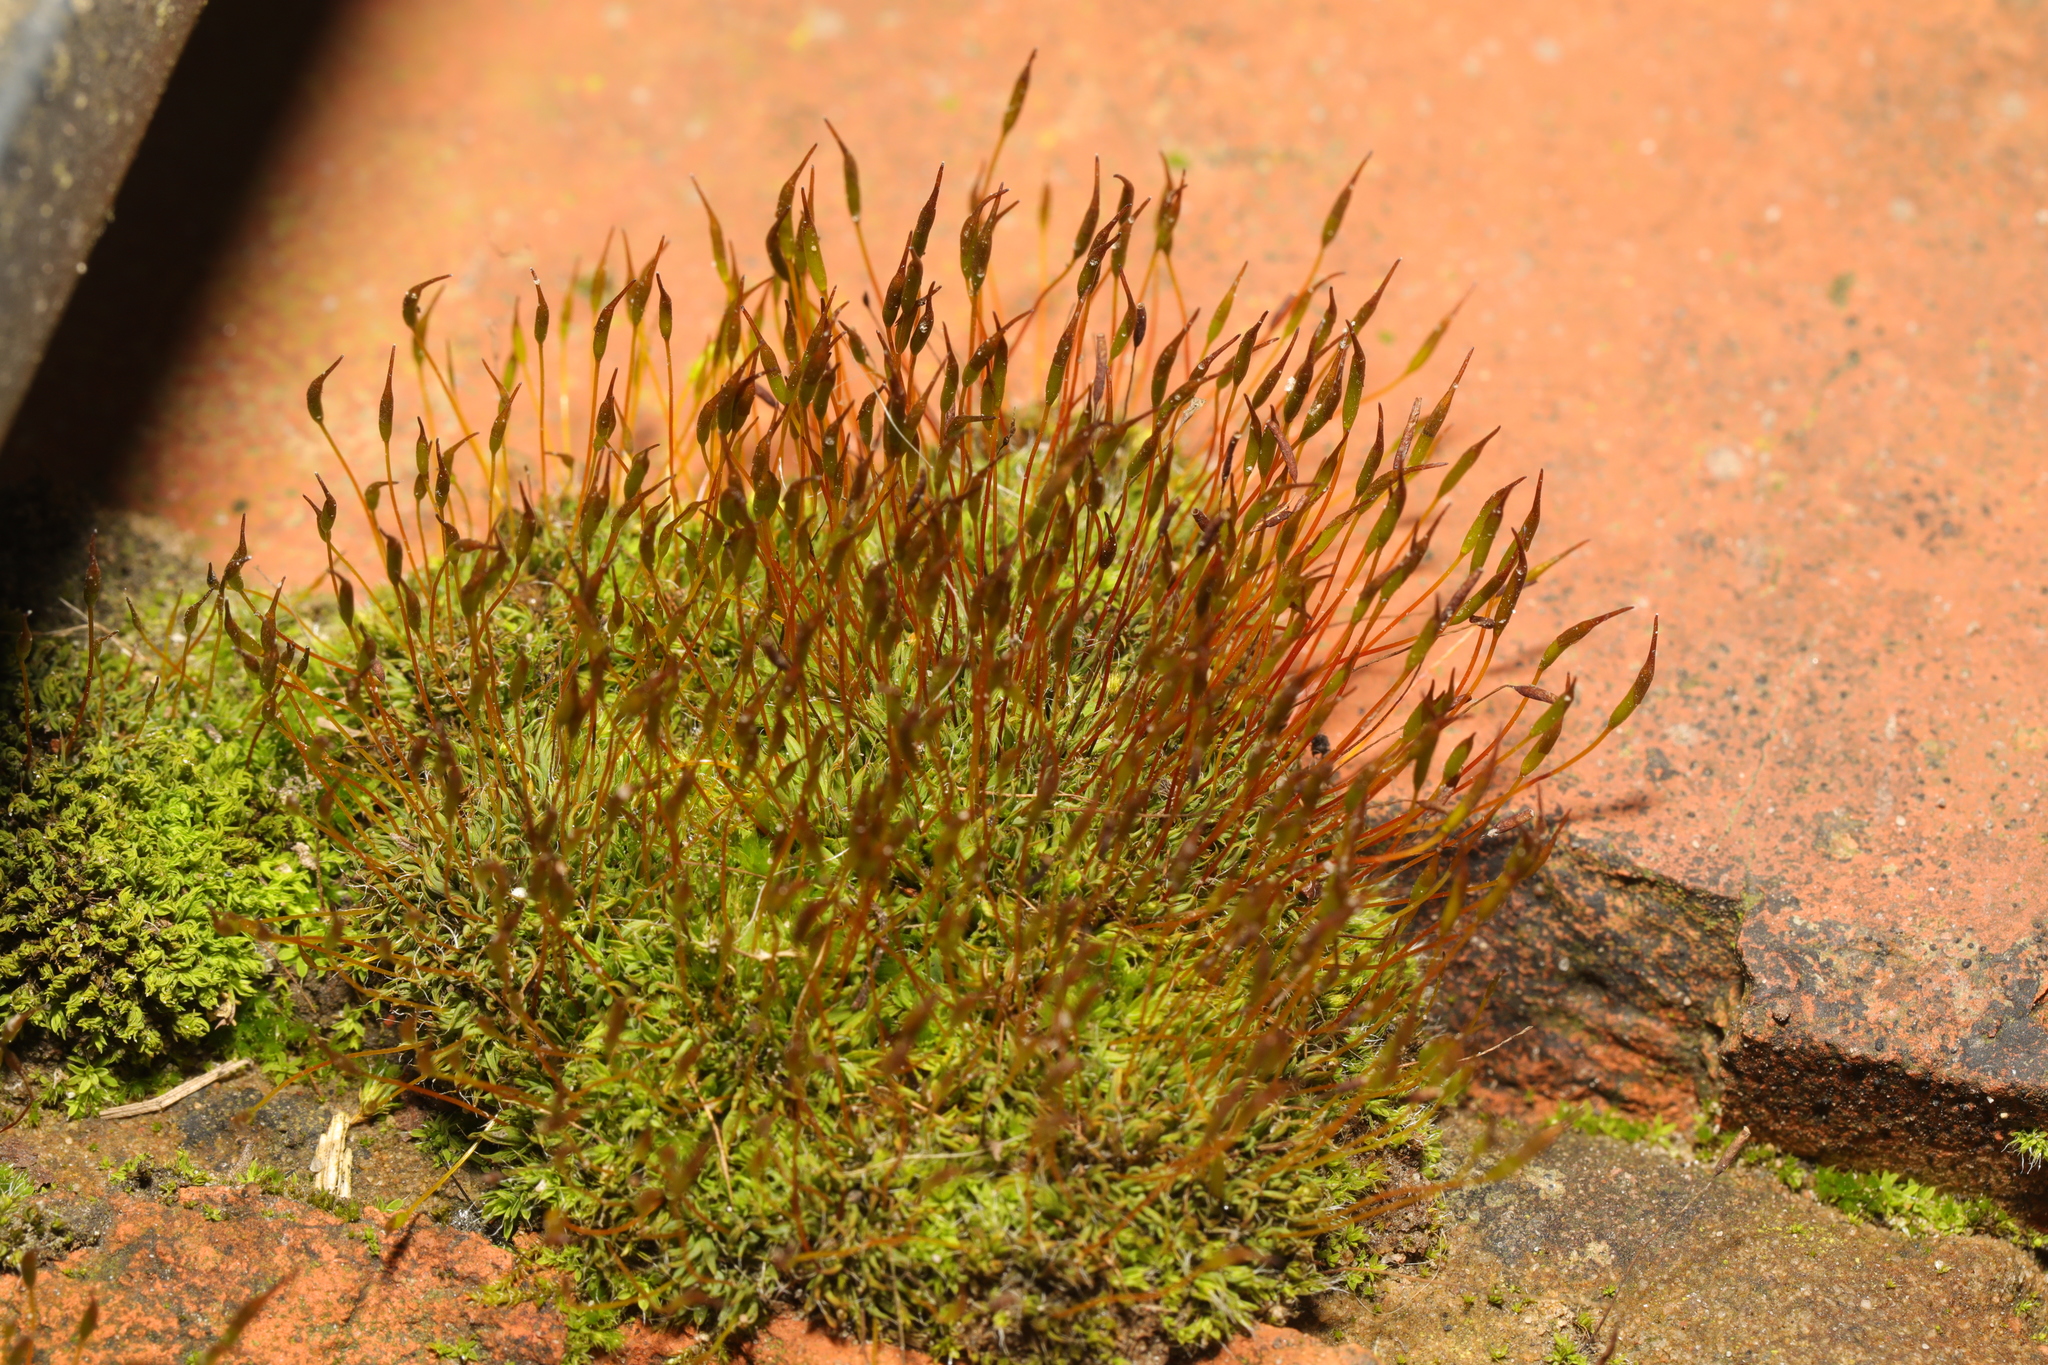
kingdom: Plantae
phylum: Bryophyta
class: Bryopsida
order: Pottiales
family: Pottiaceae
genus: Tortula
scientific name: Tortula muralis
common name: Wall screw-moss
